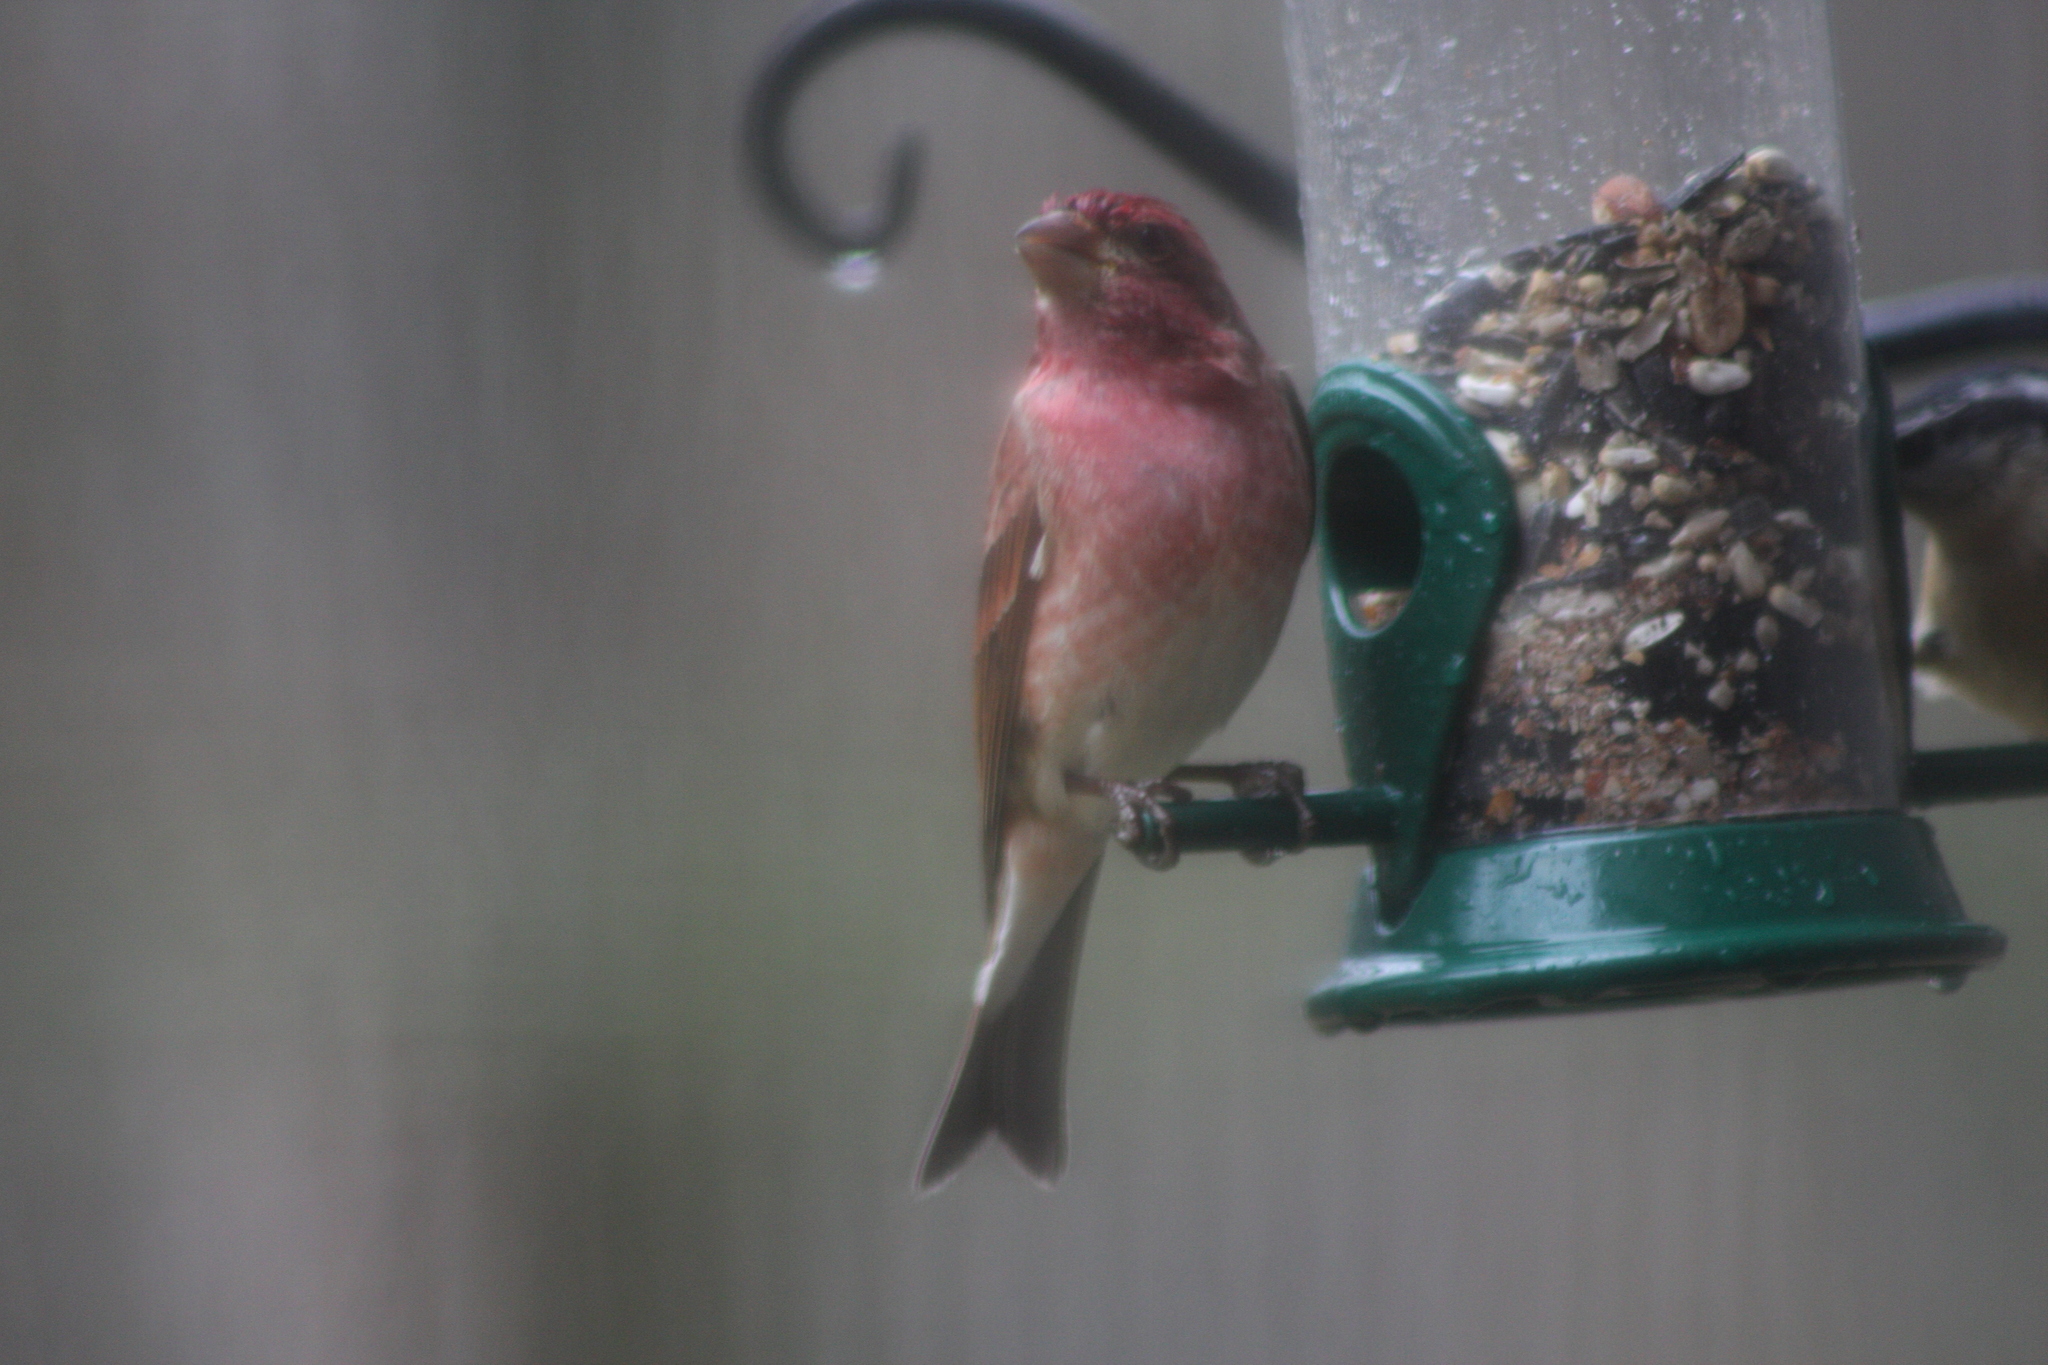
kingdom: Animalia
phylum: Chordata
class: Aves
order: Passeriformes
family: Fringillidae
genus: Haemorhous
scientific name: Haemorhous purpureus
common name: Purple finch
